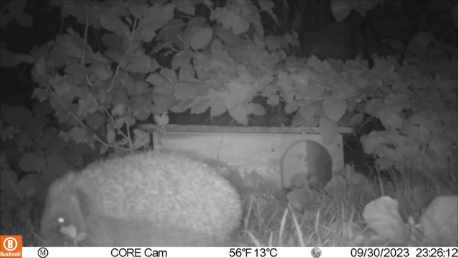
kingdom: Animalia
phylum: Chordata
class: Mammalia
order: Erinaceomorpha
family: Erinaceidae
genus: Erinaceus
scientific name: Erinaceus europaeus
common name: West european hedgehog
